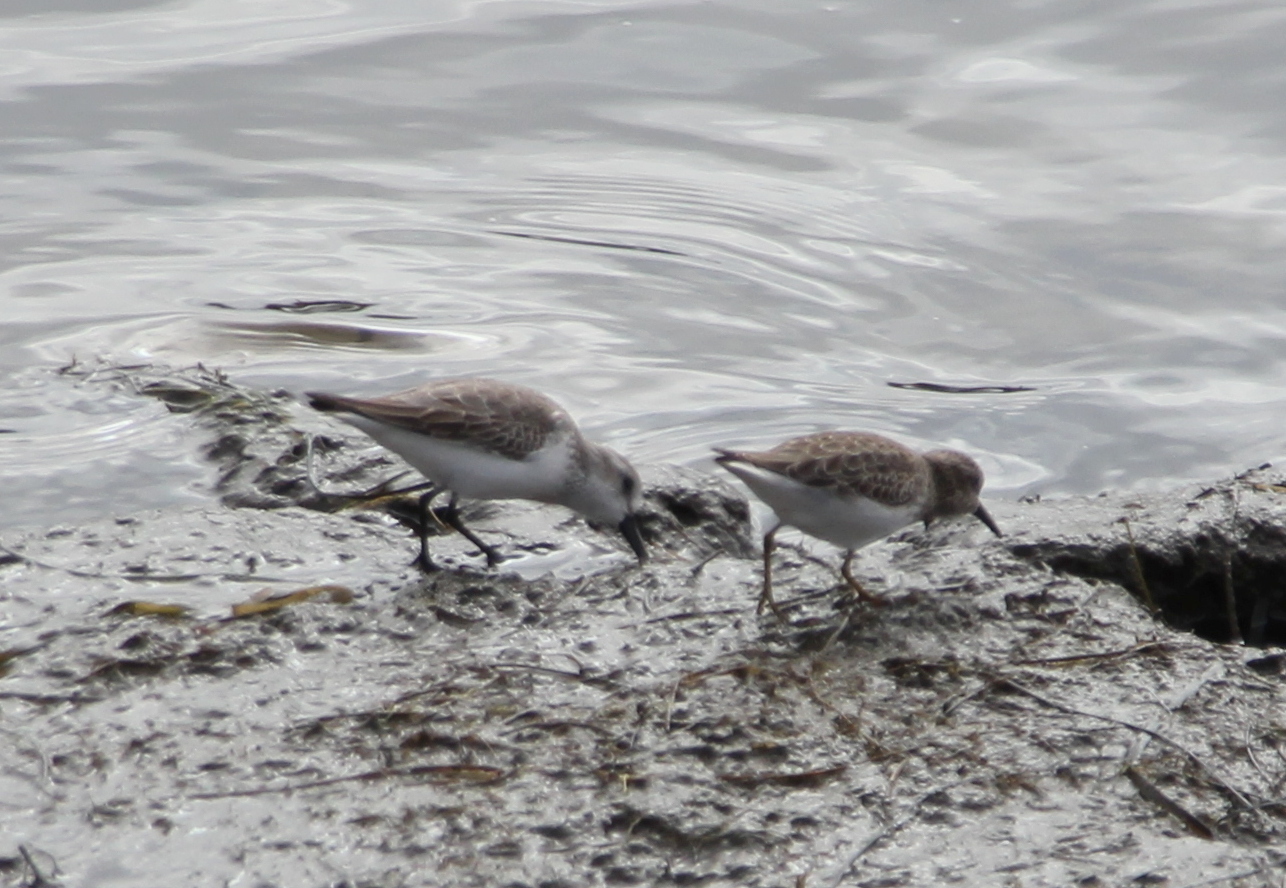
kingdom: Animalia
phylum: Chordata
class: Aves
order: Charadriiformes
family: Scolopacidae
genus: Calidris
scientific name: Calidris minutilla
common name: Least sandpiper
